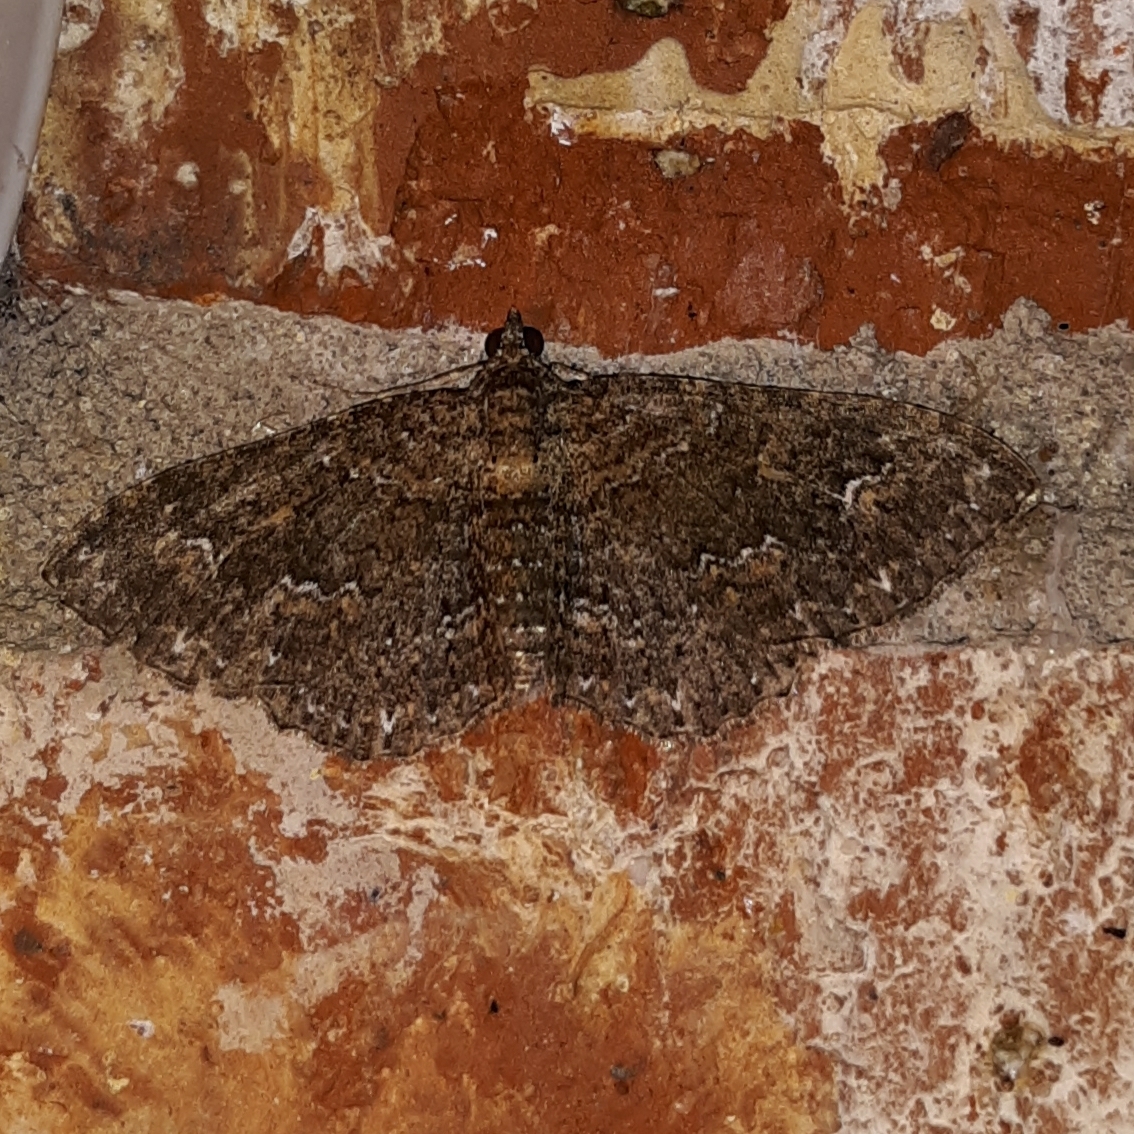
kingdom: Animalia
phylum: Arthropoda
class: Insecta
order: Lepidoptera
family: Geometridae
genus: Disclisioprocta
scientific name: Disclisioprocta stellata
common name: Somber carpet
